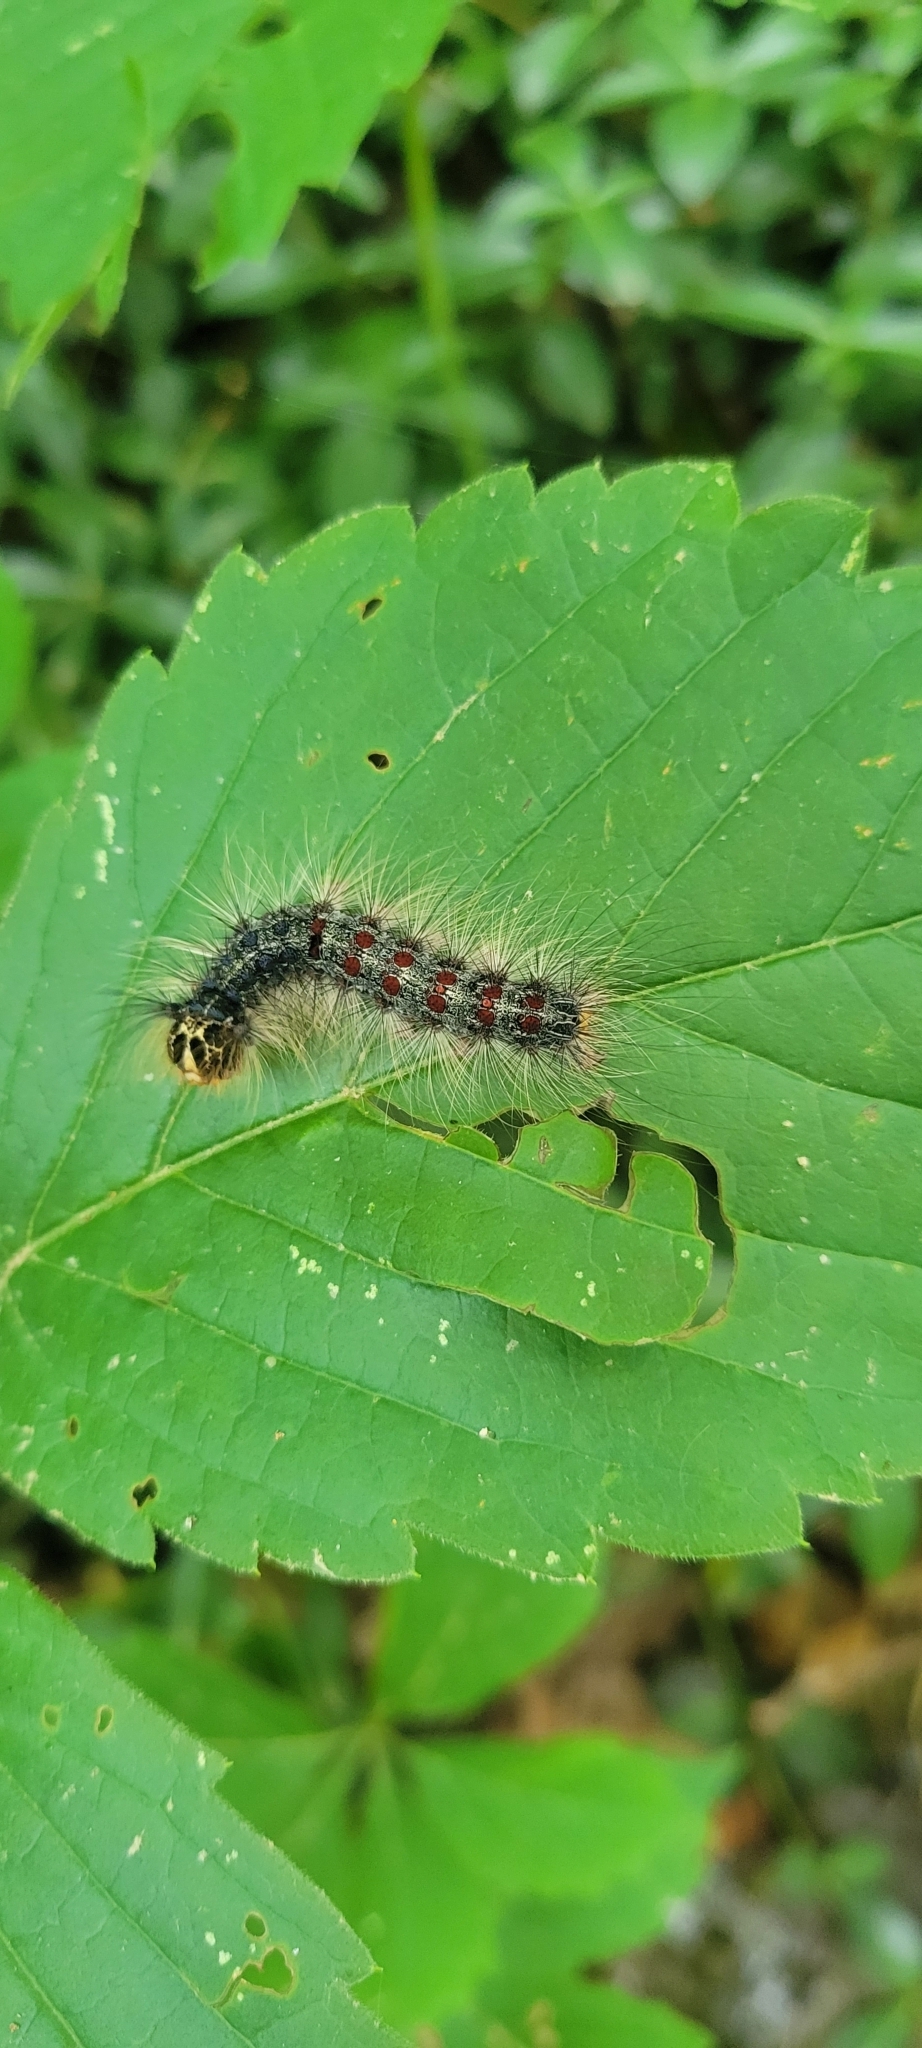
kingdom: Animalia
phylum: Arthropoda
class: Insecta
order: Lepidoptera
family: Erebidae
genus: Lymantria
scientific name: Lymantria dispar
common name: Gypsy moth
